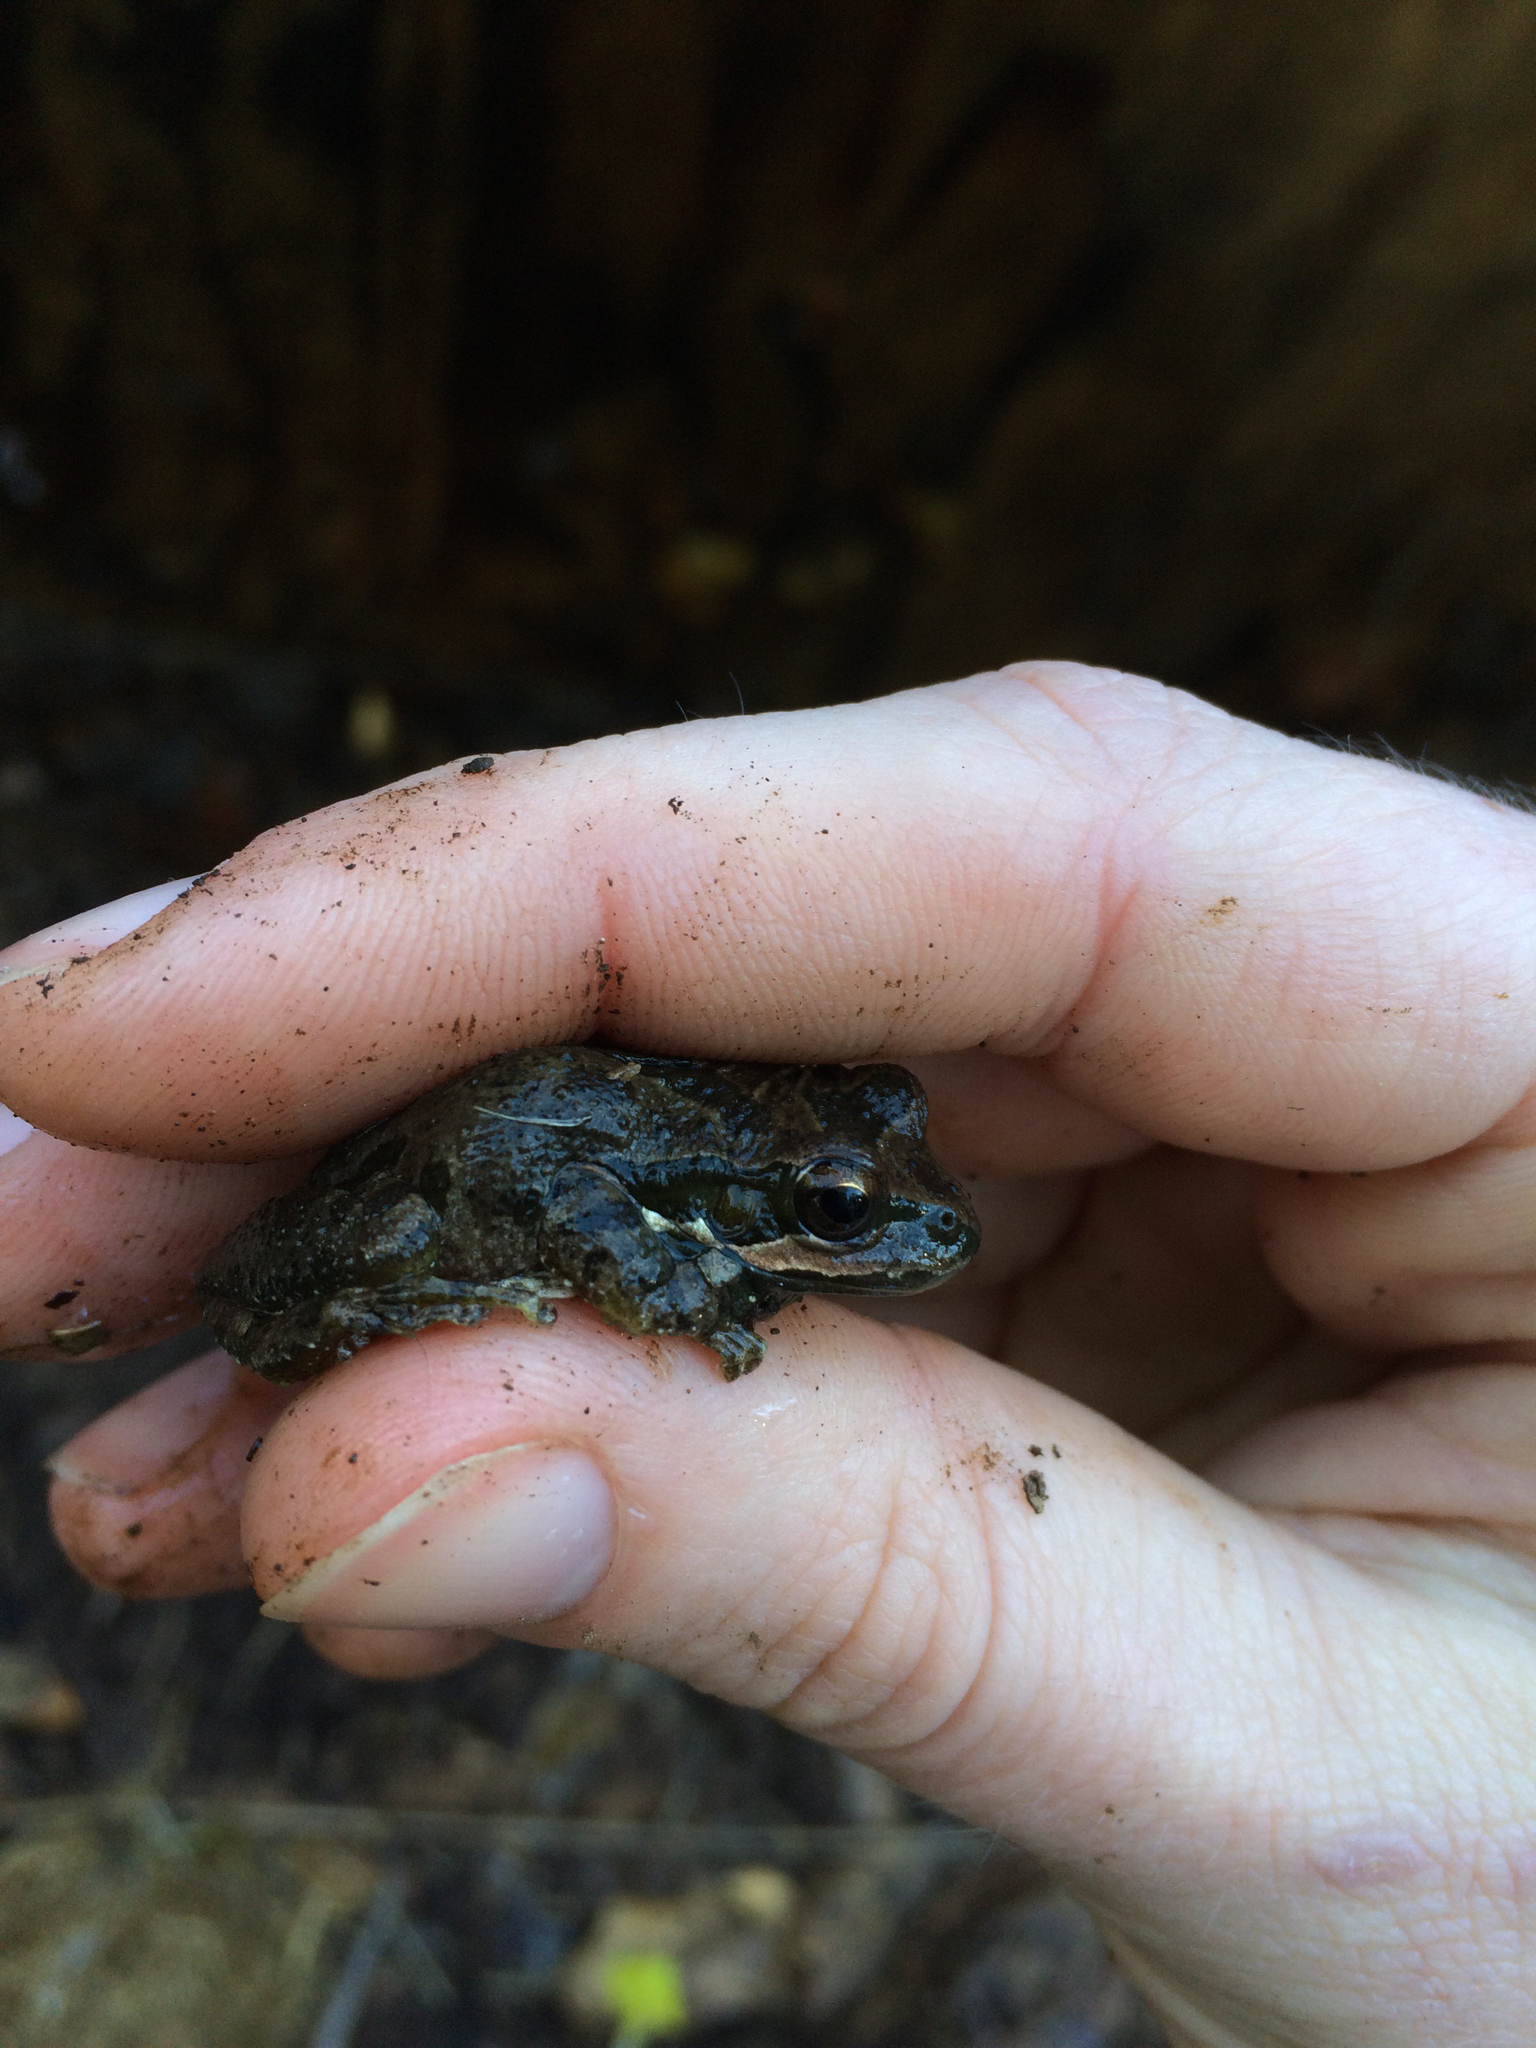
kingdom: Animalia
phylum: Chordata
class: Amphibia
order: Anura
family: Hylidae
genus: Pseudacris
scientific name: Pseudacris regilla
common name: Pacific chorus frog
